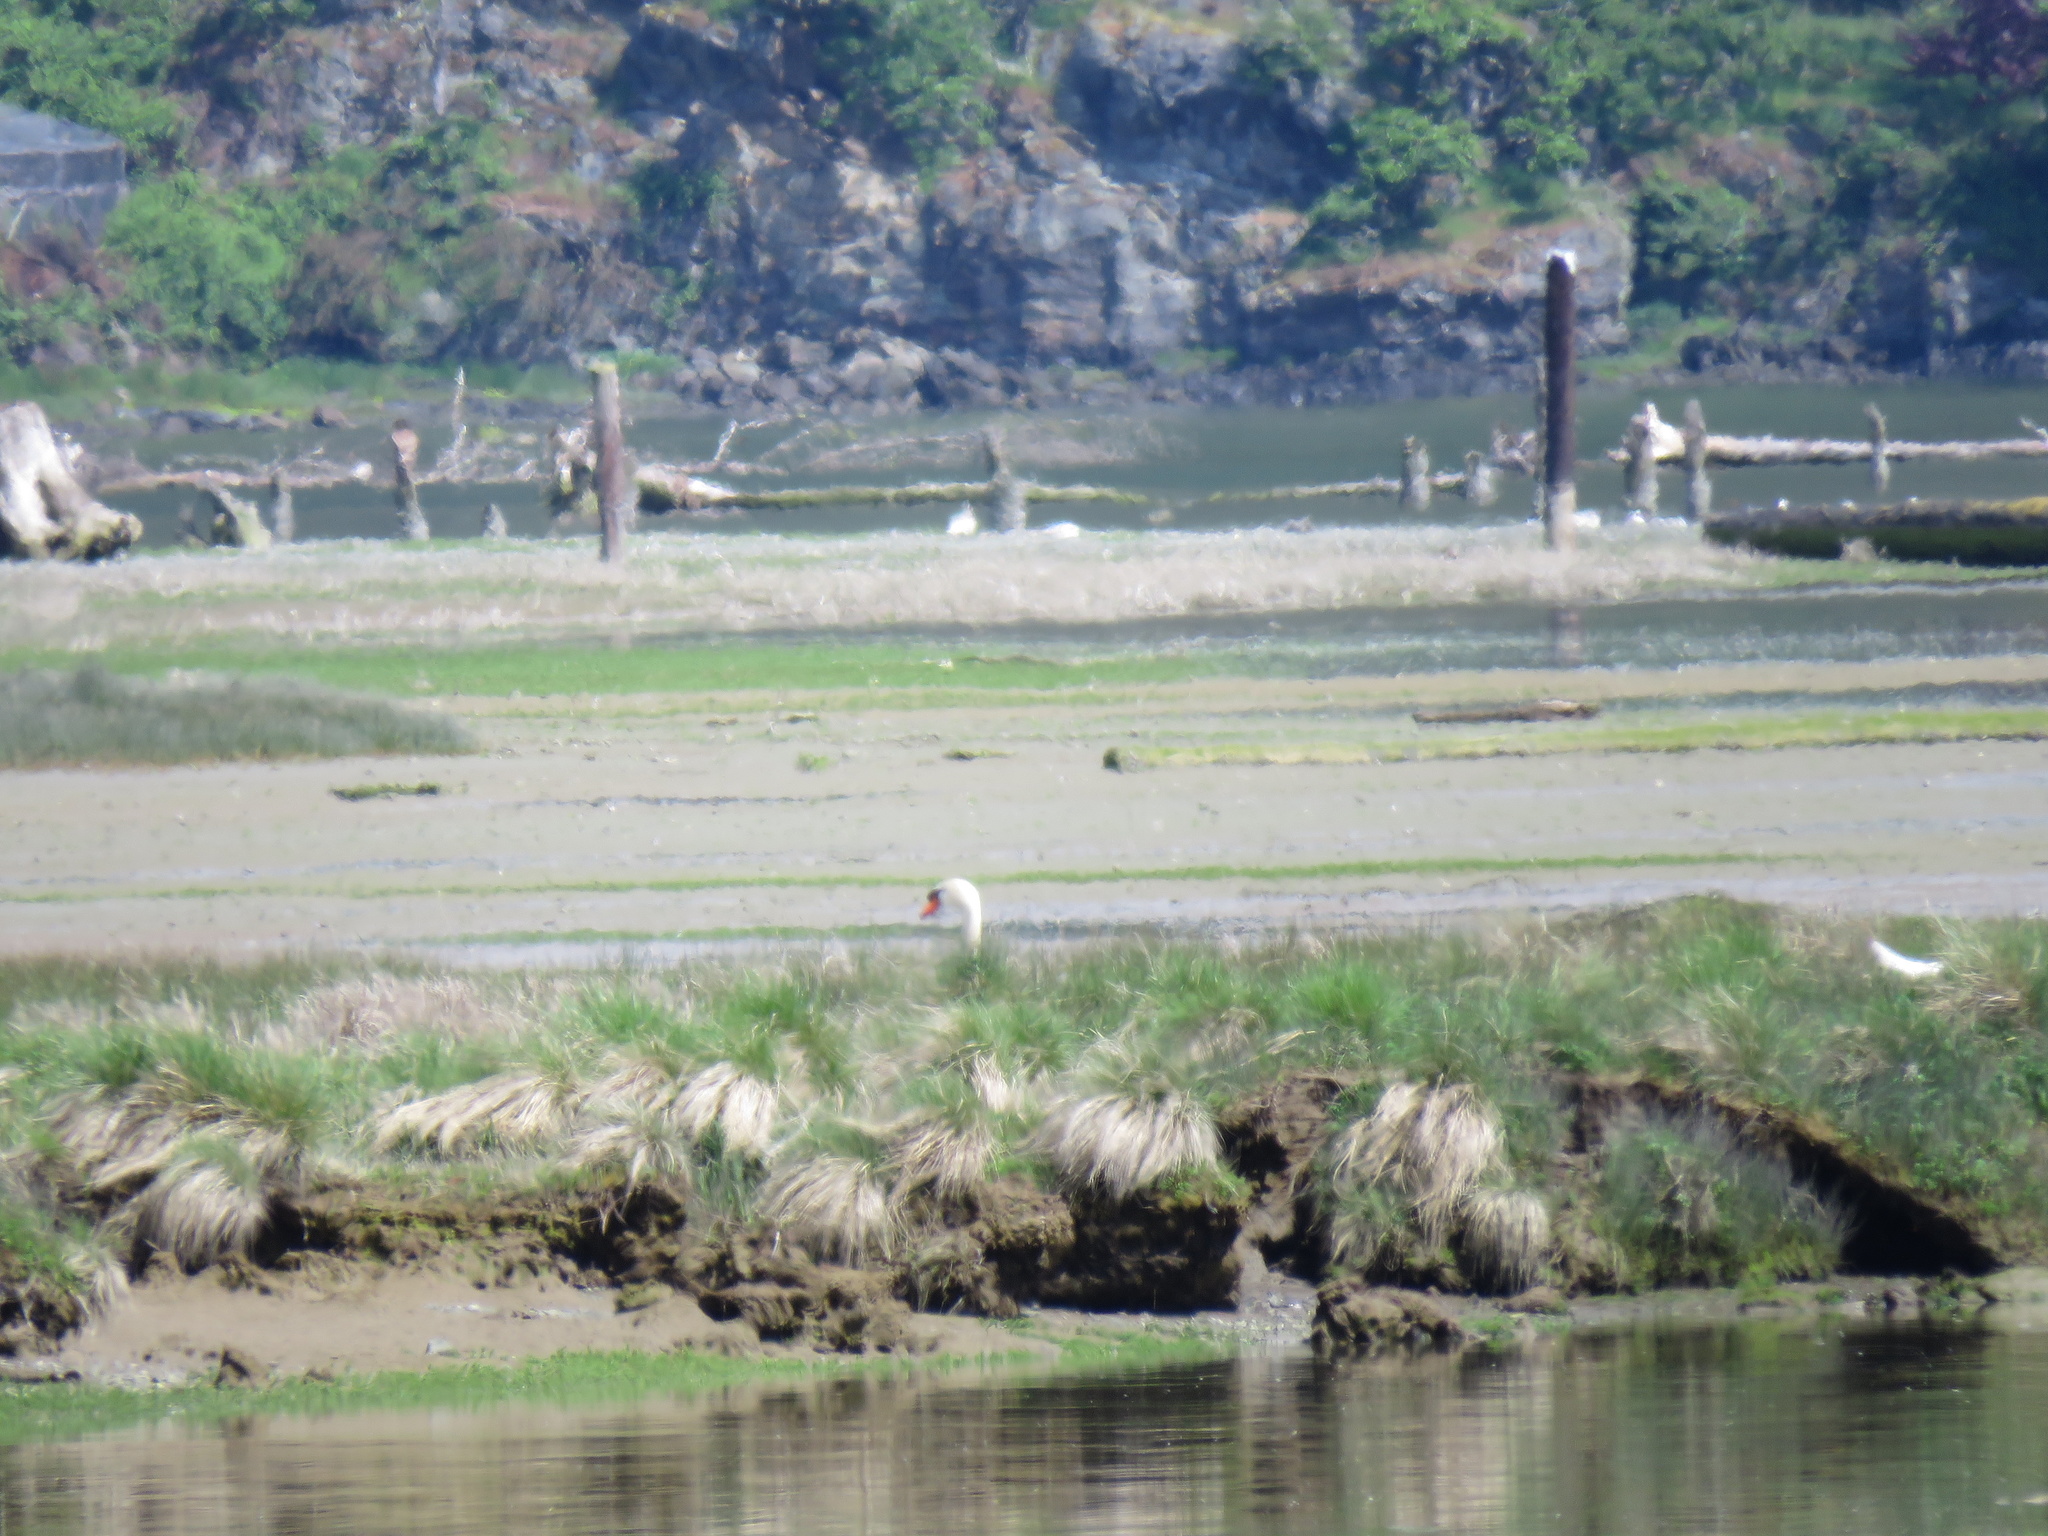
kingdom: Animalia
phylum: Chordata
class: Aves
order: Anseriformes
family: Anatidae
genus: Cygnus
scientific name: Cygnus olor
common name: Mute swan
